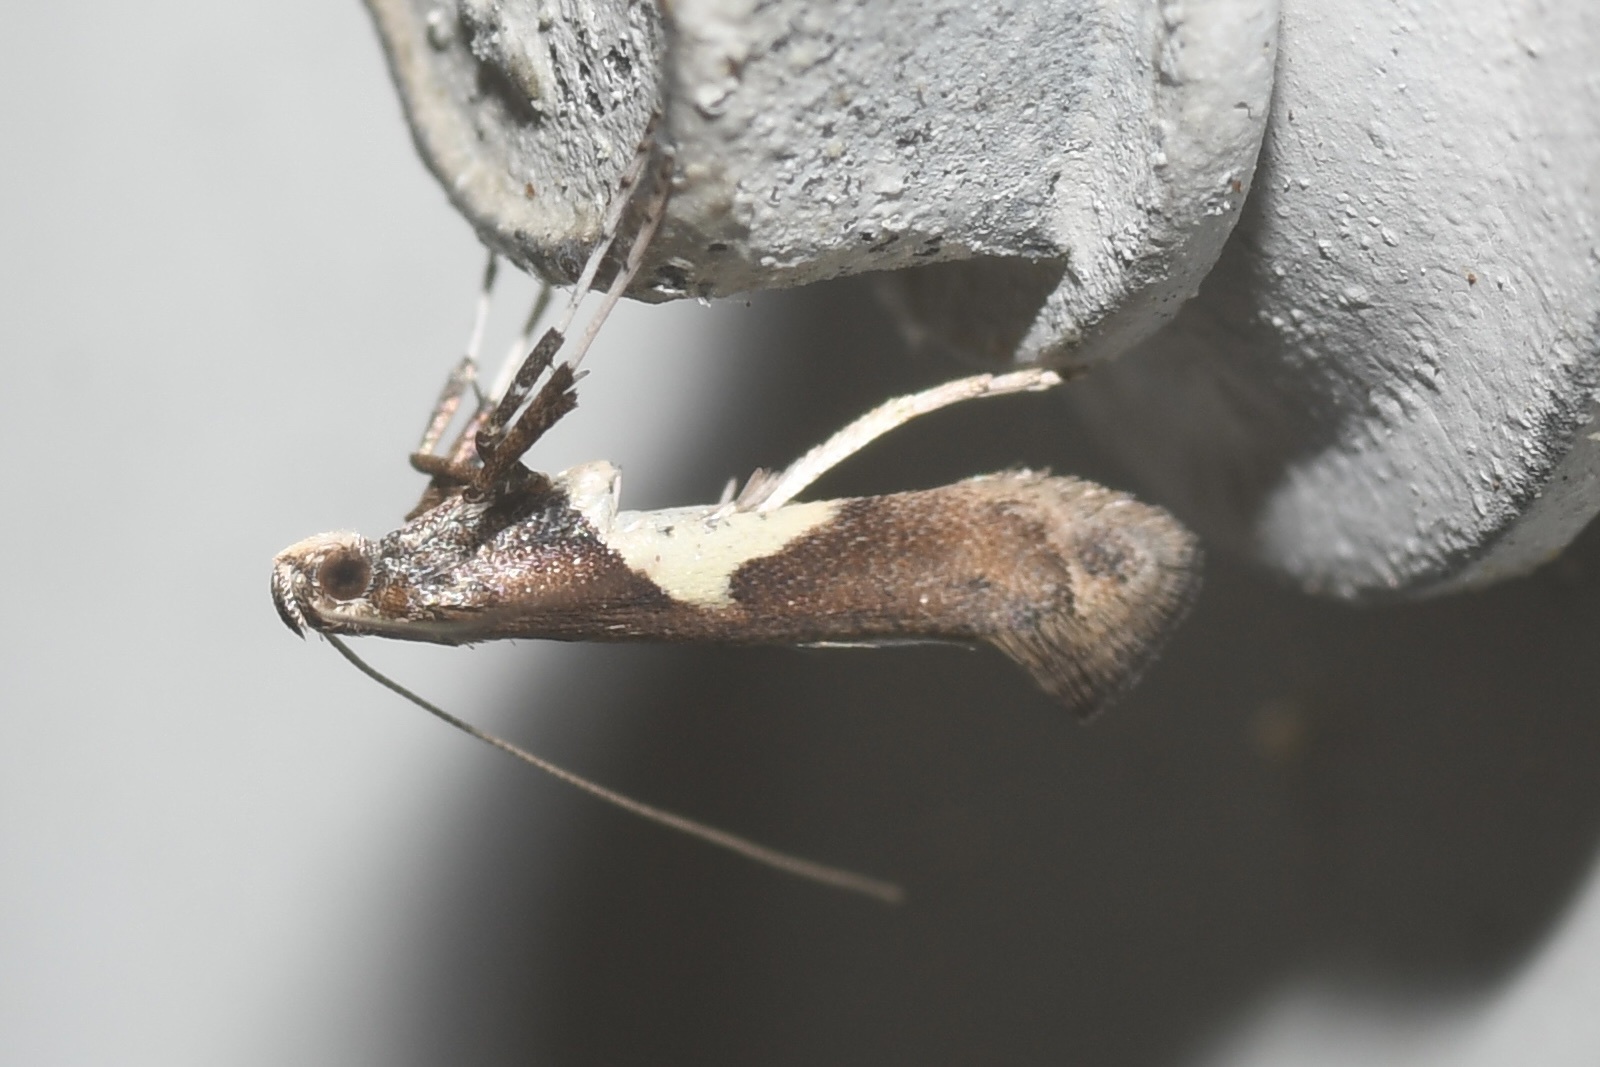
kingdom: Animalia
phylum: Arthropoda
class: Insecta
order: Lepidoptera
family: Gracillariidae
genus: Caloptilia
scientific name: Caloptilia stigmatella
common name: White-triangle slender
